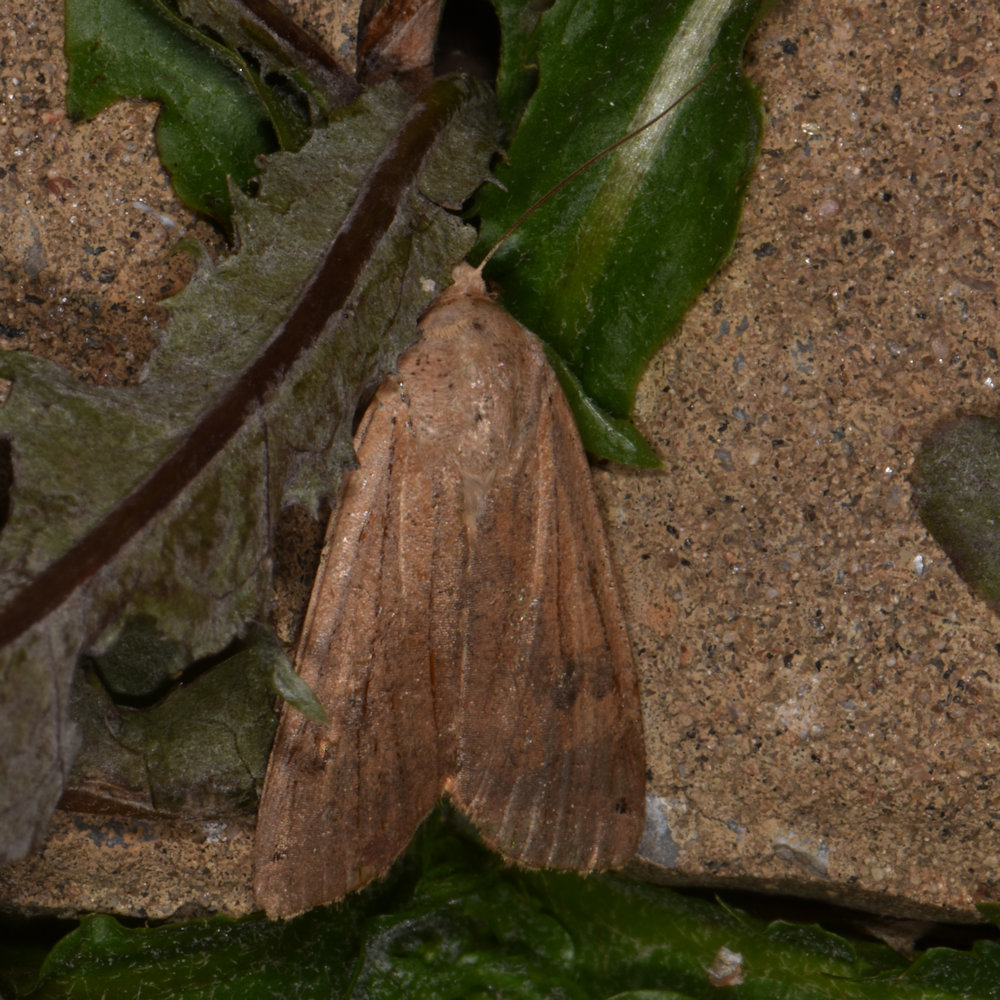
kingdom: Animalia
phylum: Arthropoda
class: Insecta
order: Lepidoptera
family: Noctuidae
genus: Noctua
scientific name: Noctua pronuba
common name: Large yellow underwing
